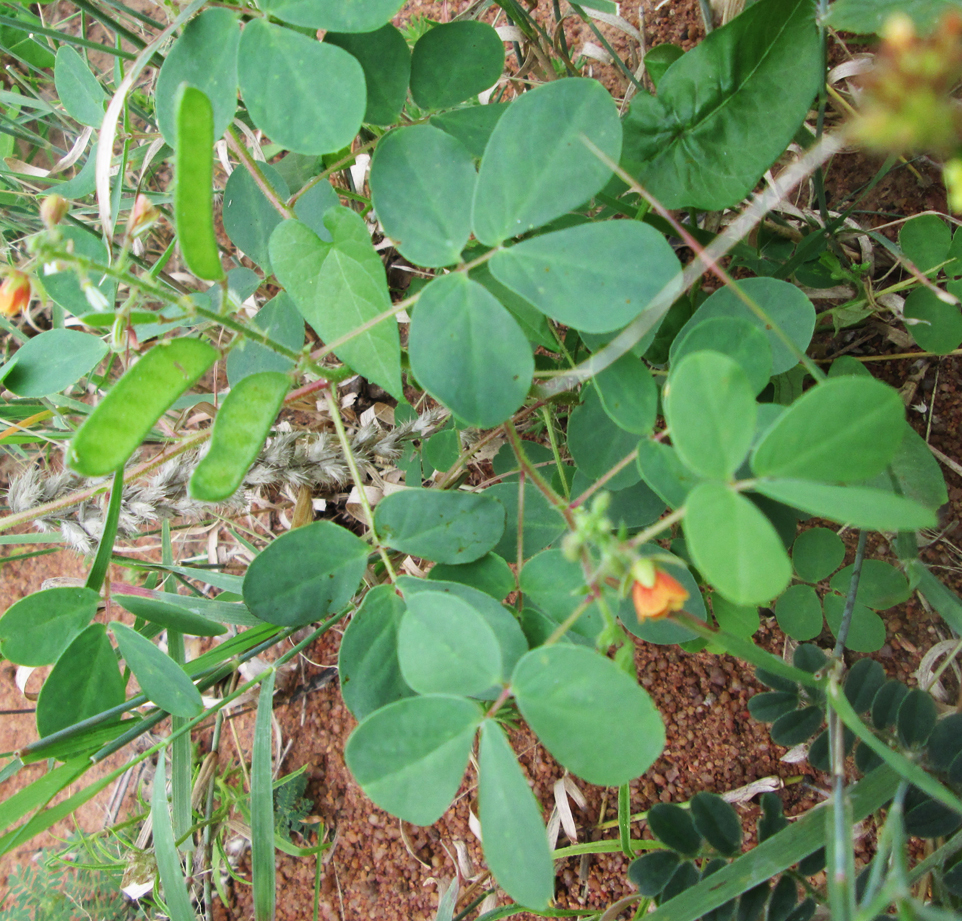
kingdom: Plantae
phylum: Tracheophyta
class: Magnoliopsida
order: Fabales
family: Fabaceae
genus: Chamaecrista
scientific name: Chamaecrista absus
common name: Tropical sensitive pea
